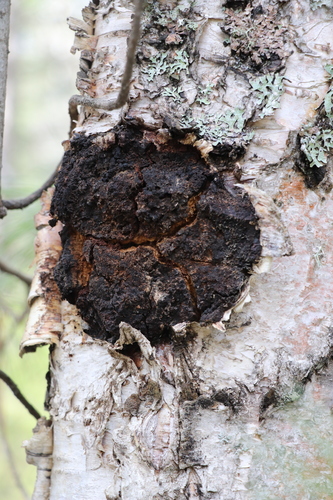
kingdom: Fungi
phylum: Basidiomycota
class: Agaricomycetes
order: Hymenochaetales
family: Hymenochaetaceae
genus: Inonotus
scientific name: Inonotus obliquus
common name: Chaga
